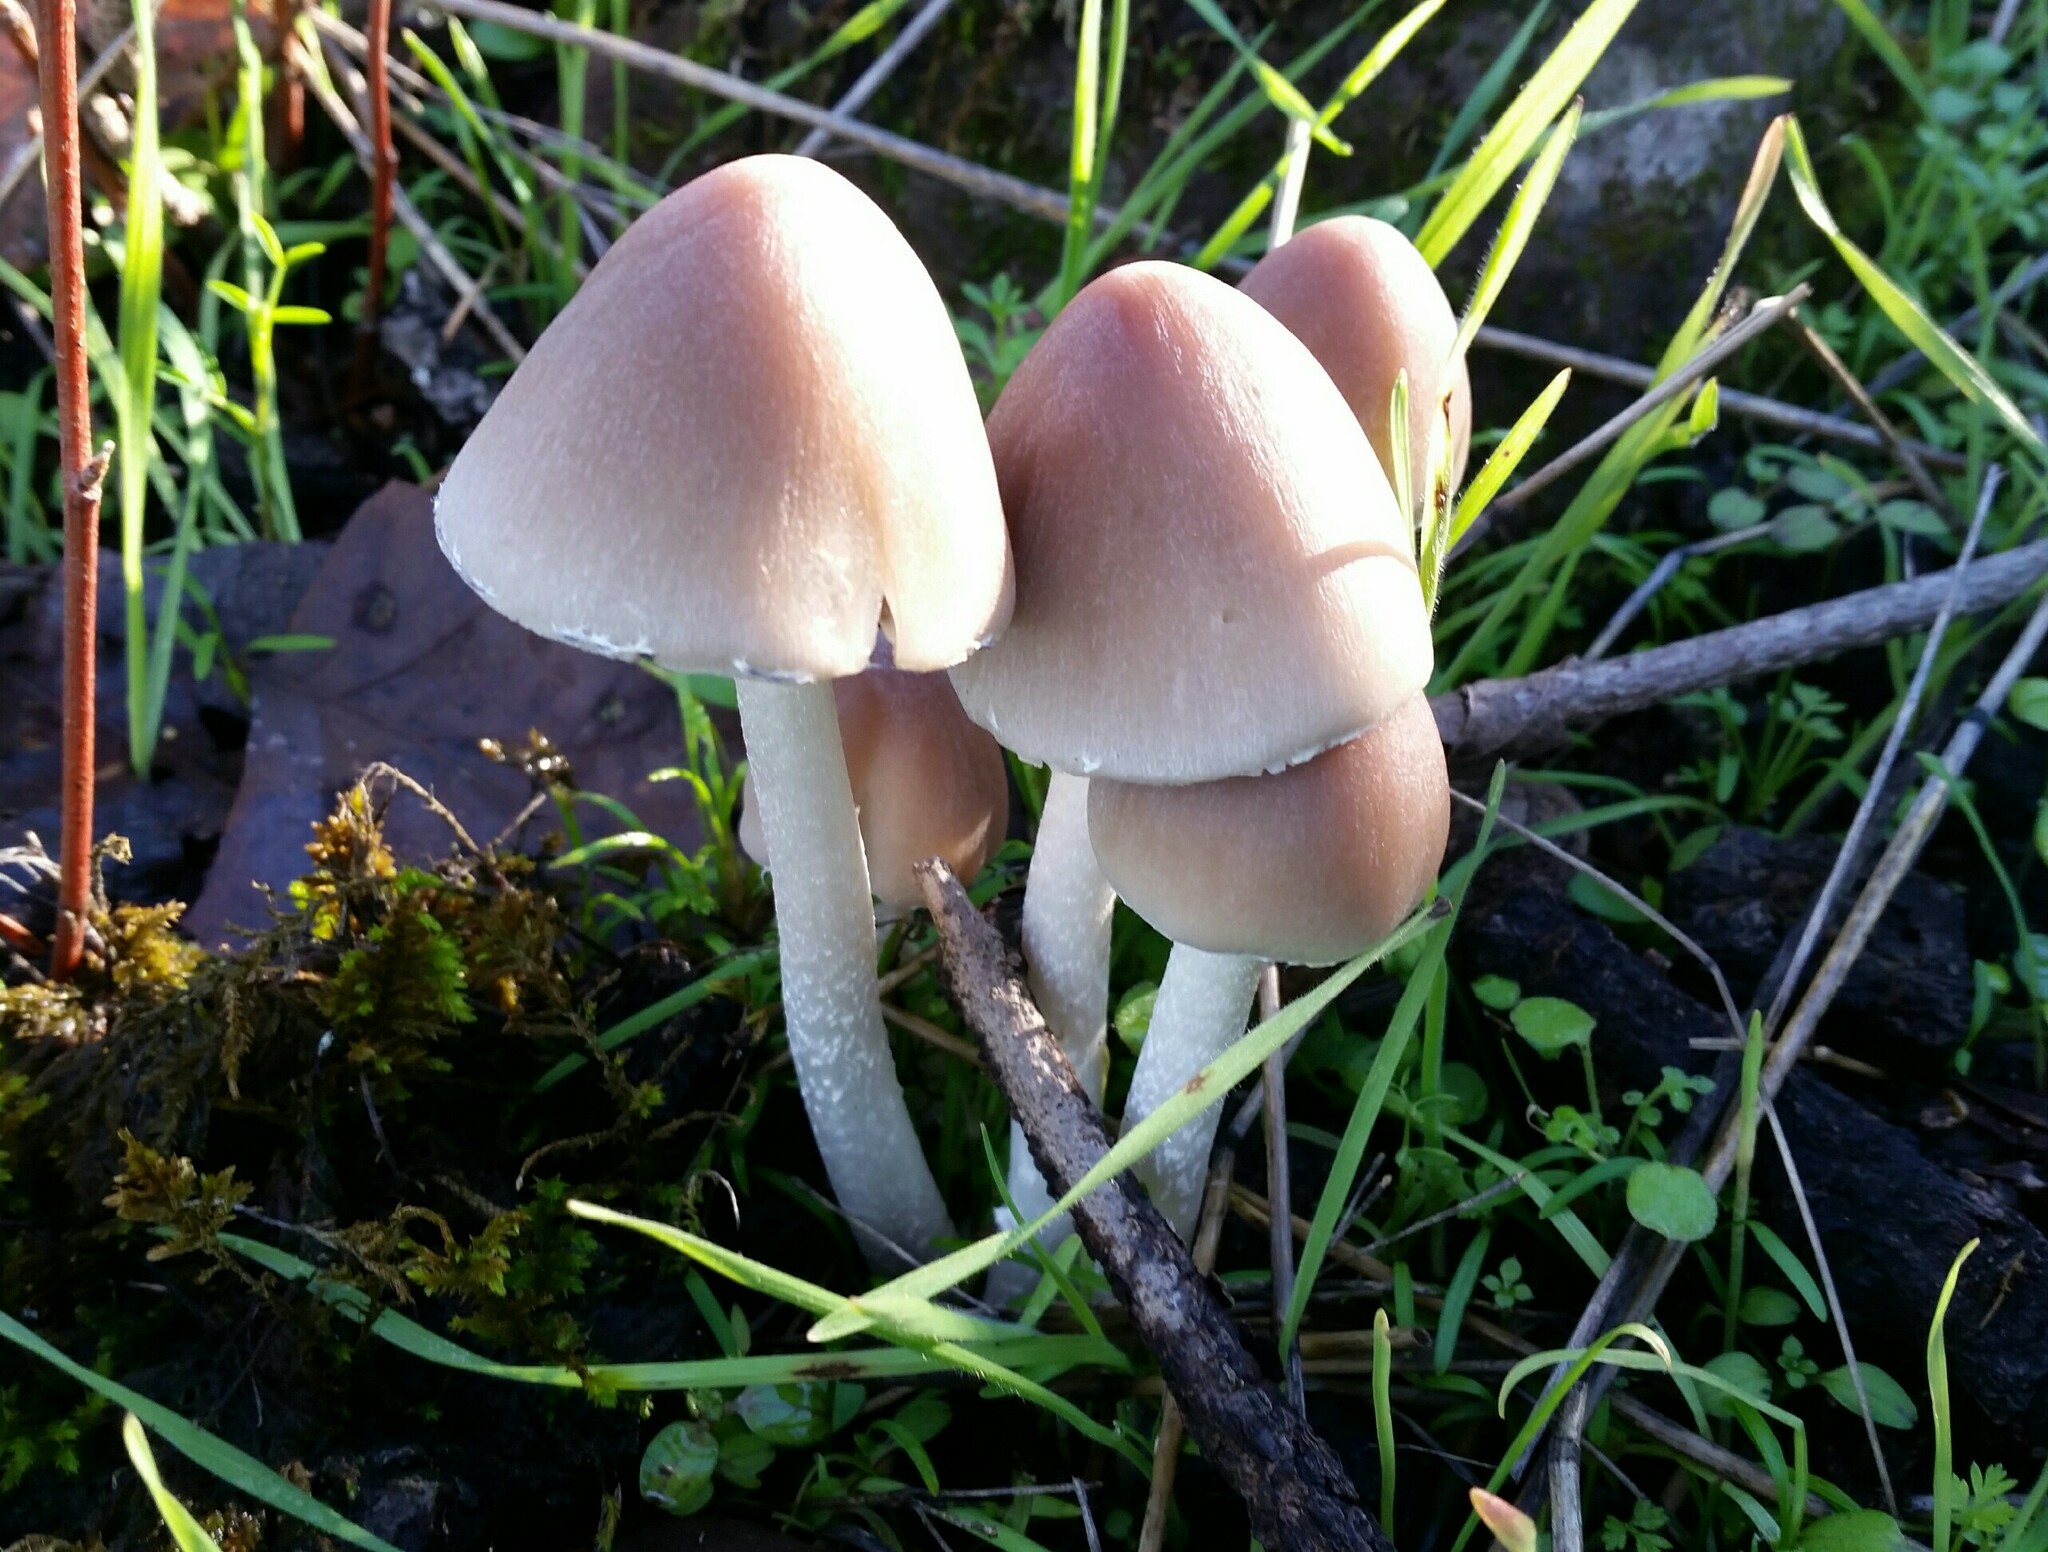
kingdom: Fungi
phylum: Basidiomycota
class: Agaricomycetes
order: Agaricales
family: Psathyrellaceae
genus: Psathyrella
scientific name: Psathyrella longipes
